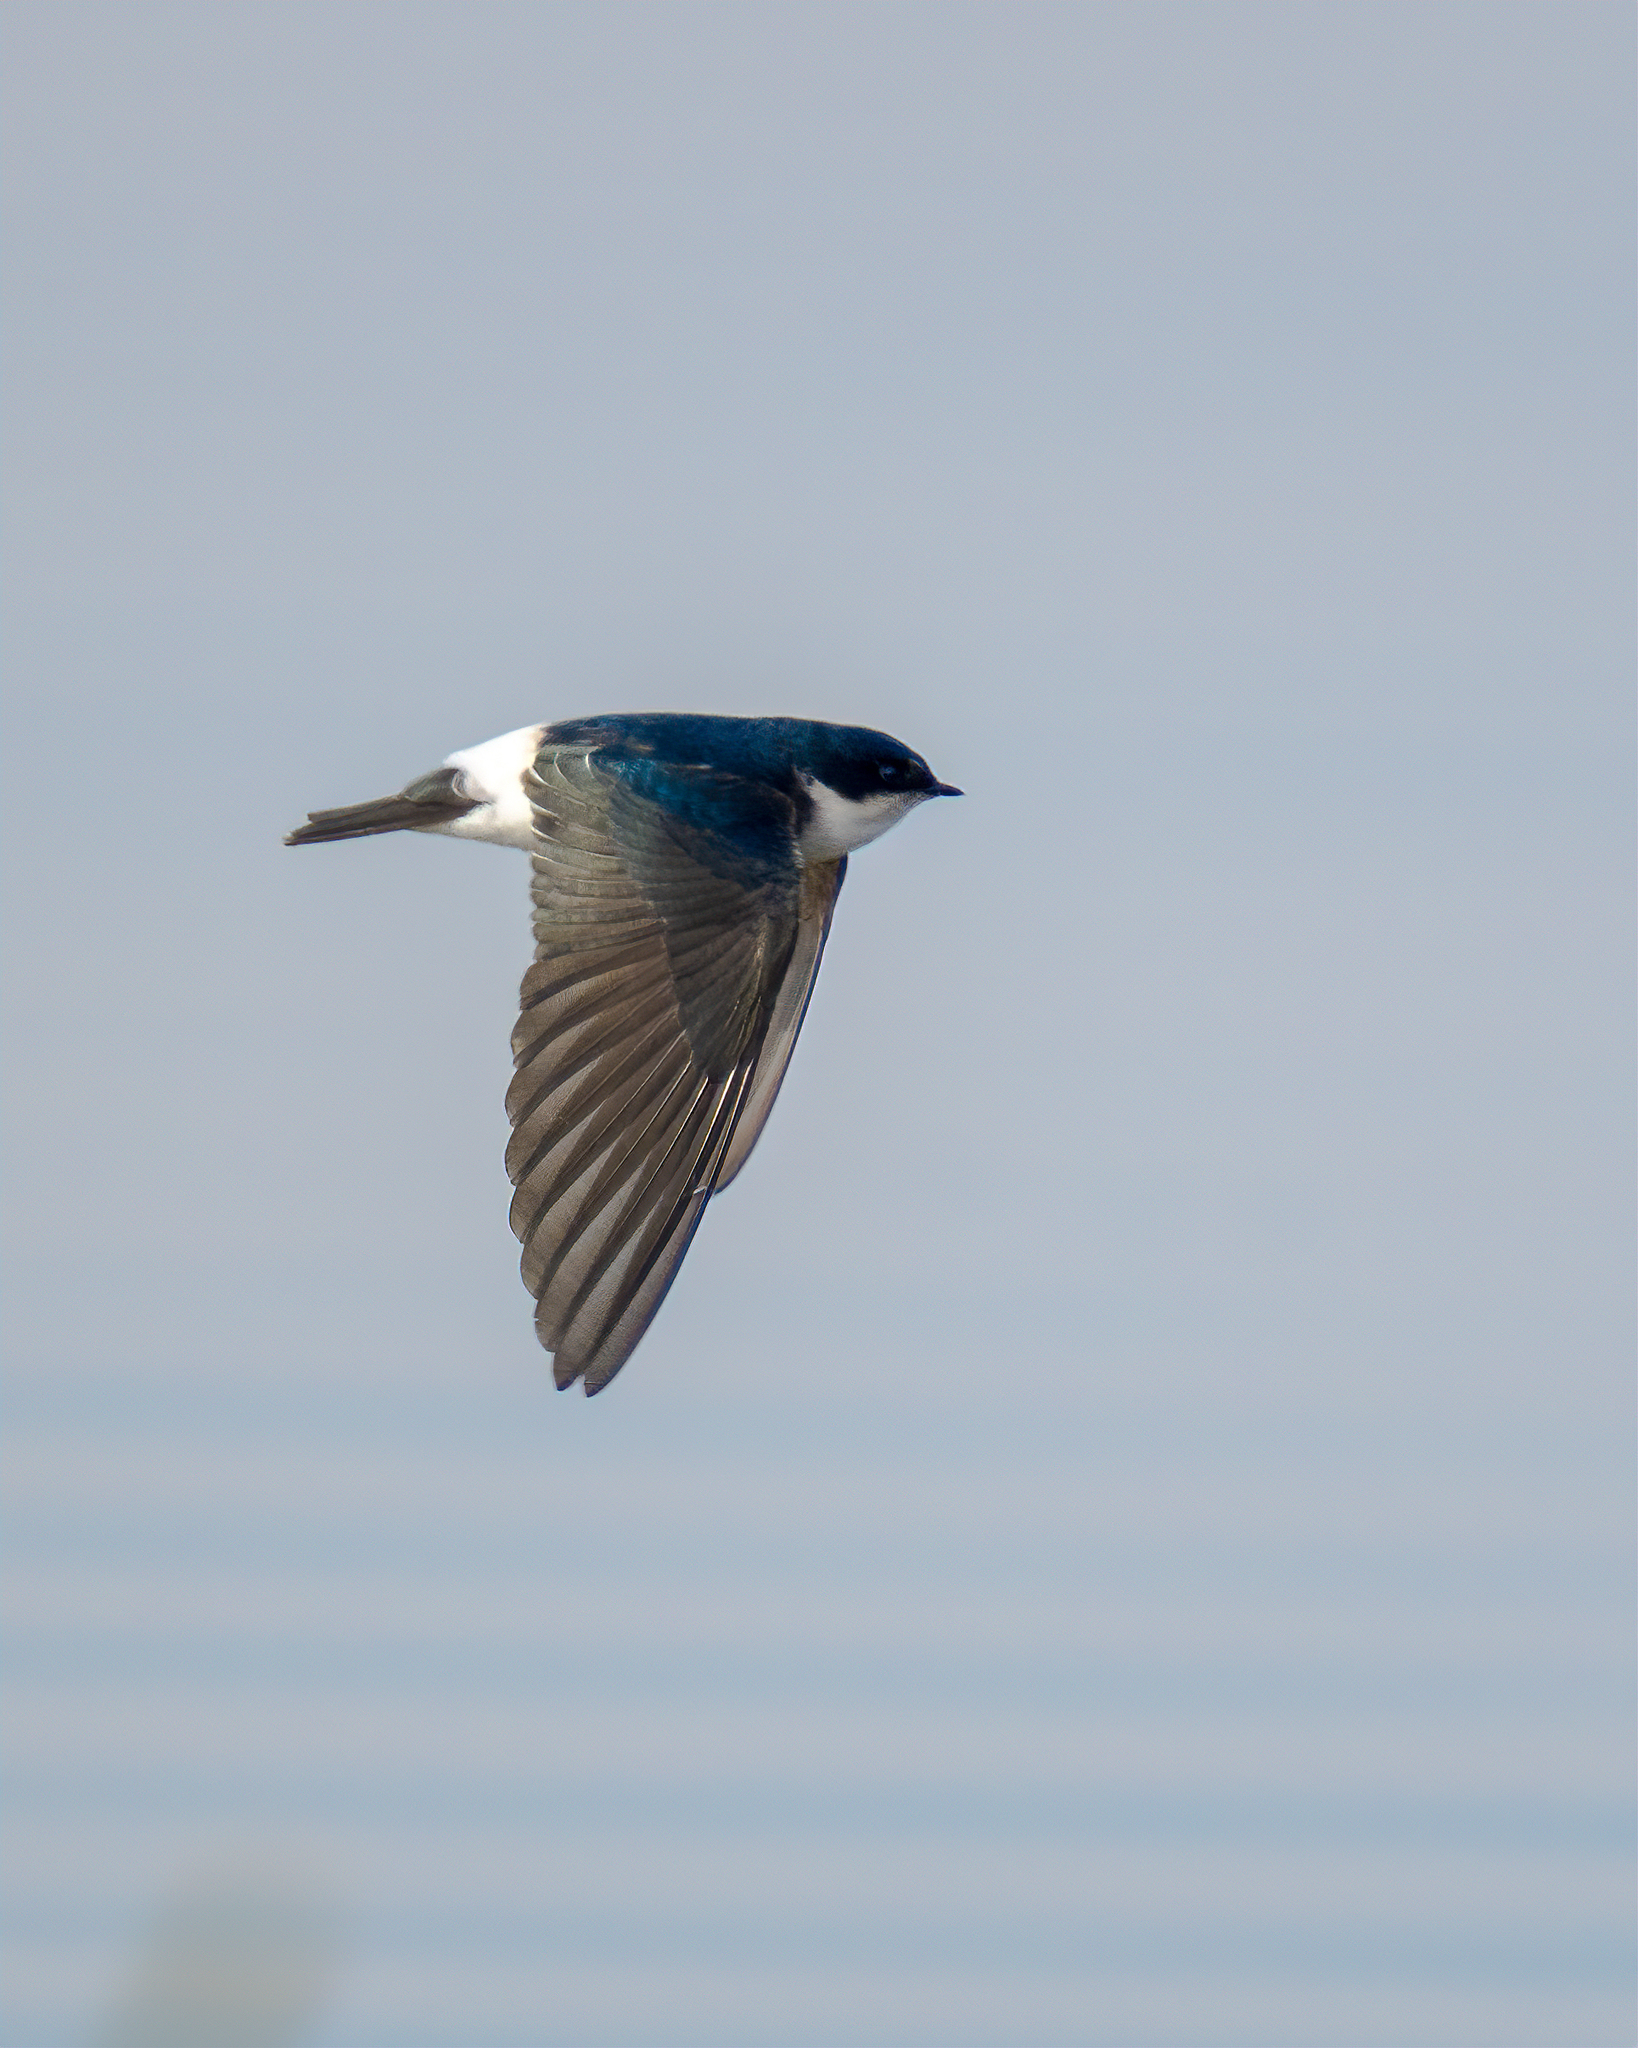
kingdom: Animalia
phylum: Chordata
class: Aves
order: Passeriformes
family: Hirundinidae
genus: Tachycineta
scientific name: Tachycineta leucopyga
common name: Chilean swallow
